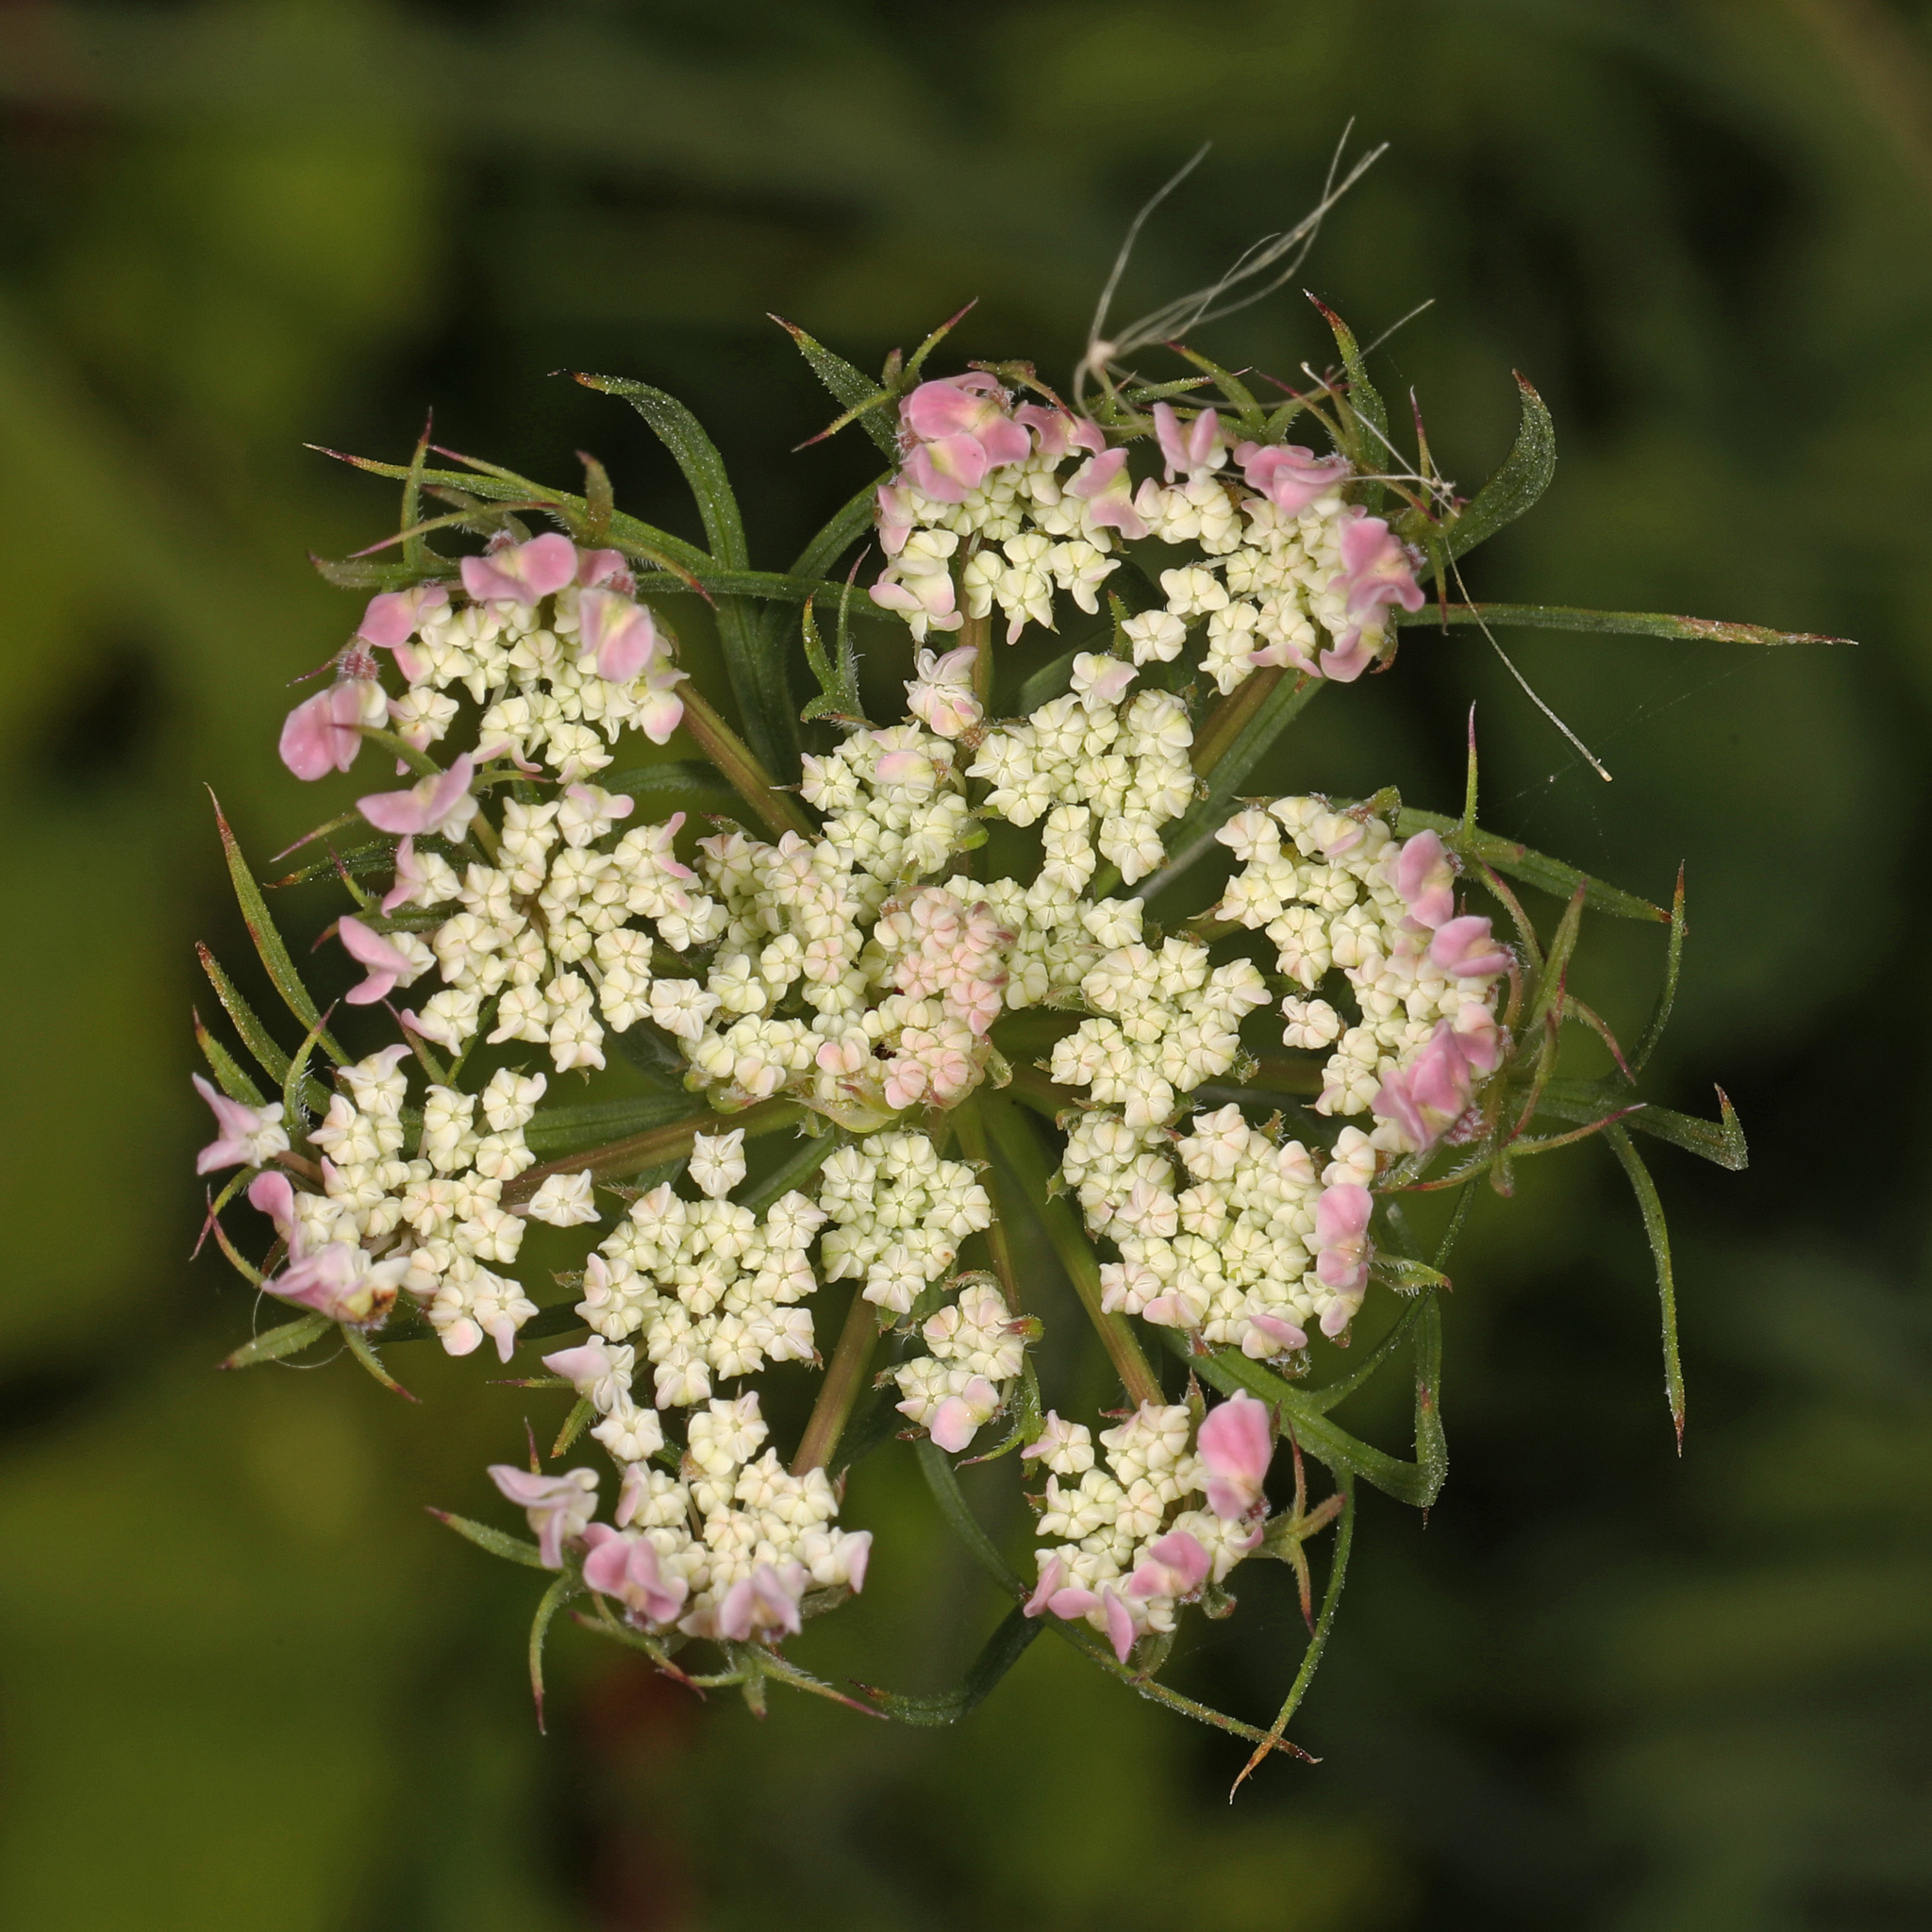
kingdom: Plantae
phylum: Tracheophyta
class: Magnoliopsida
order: Apiales
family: Apiaceae
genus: Daucus
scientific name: Daucus carota
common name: Wild carrot
